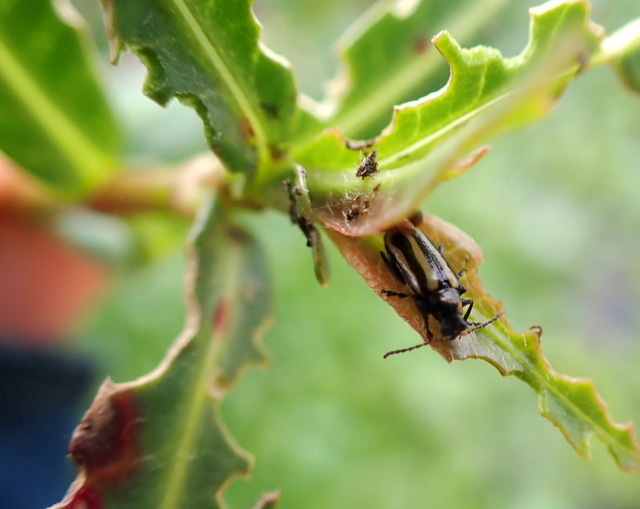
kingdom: Animalia
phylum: Arthropoda
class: Insecta
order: Coleoptera
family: Chrysomelidae
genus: Agasicles
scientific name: Agasicles hygrophila
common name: Alligatorweed flea beetle
